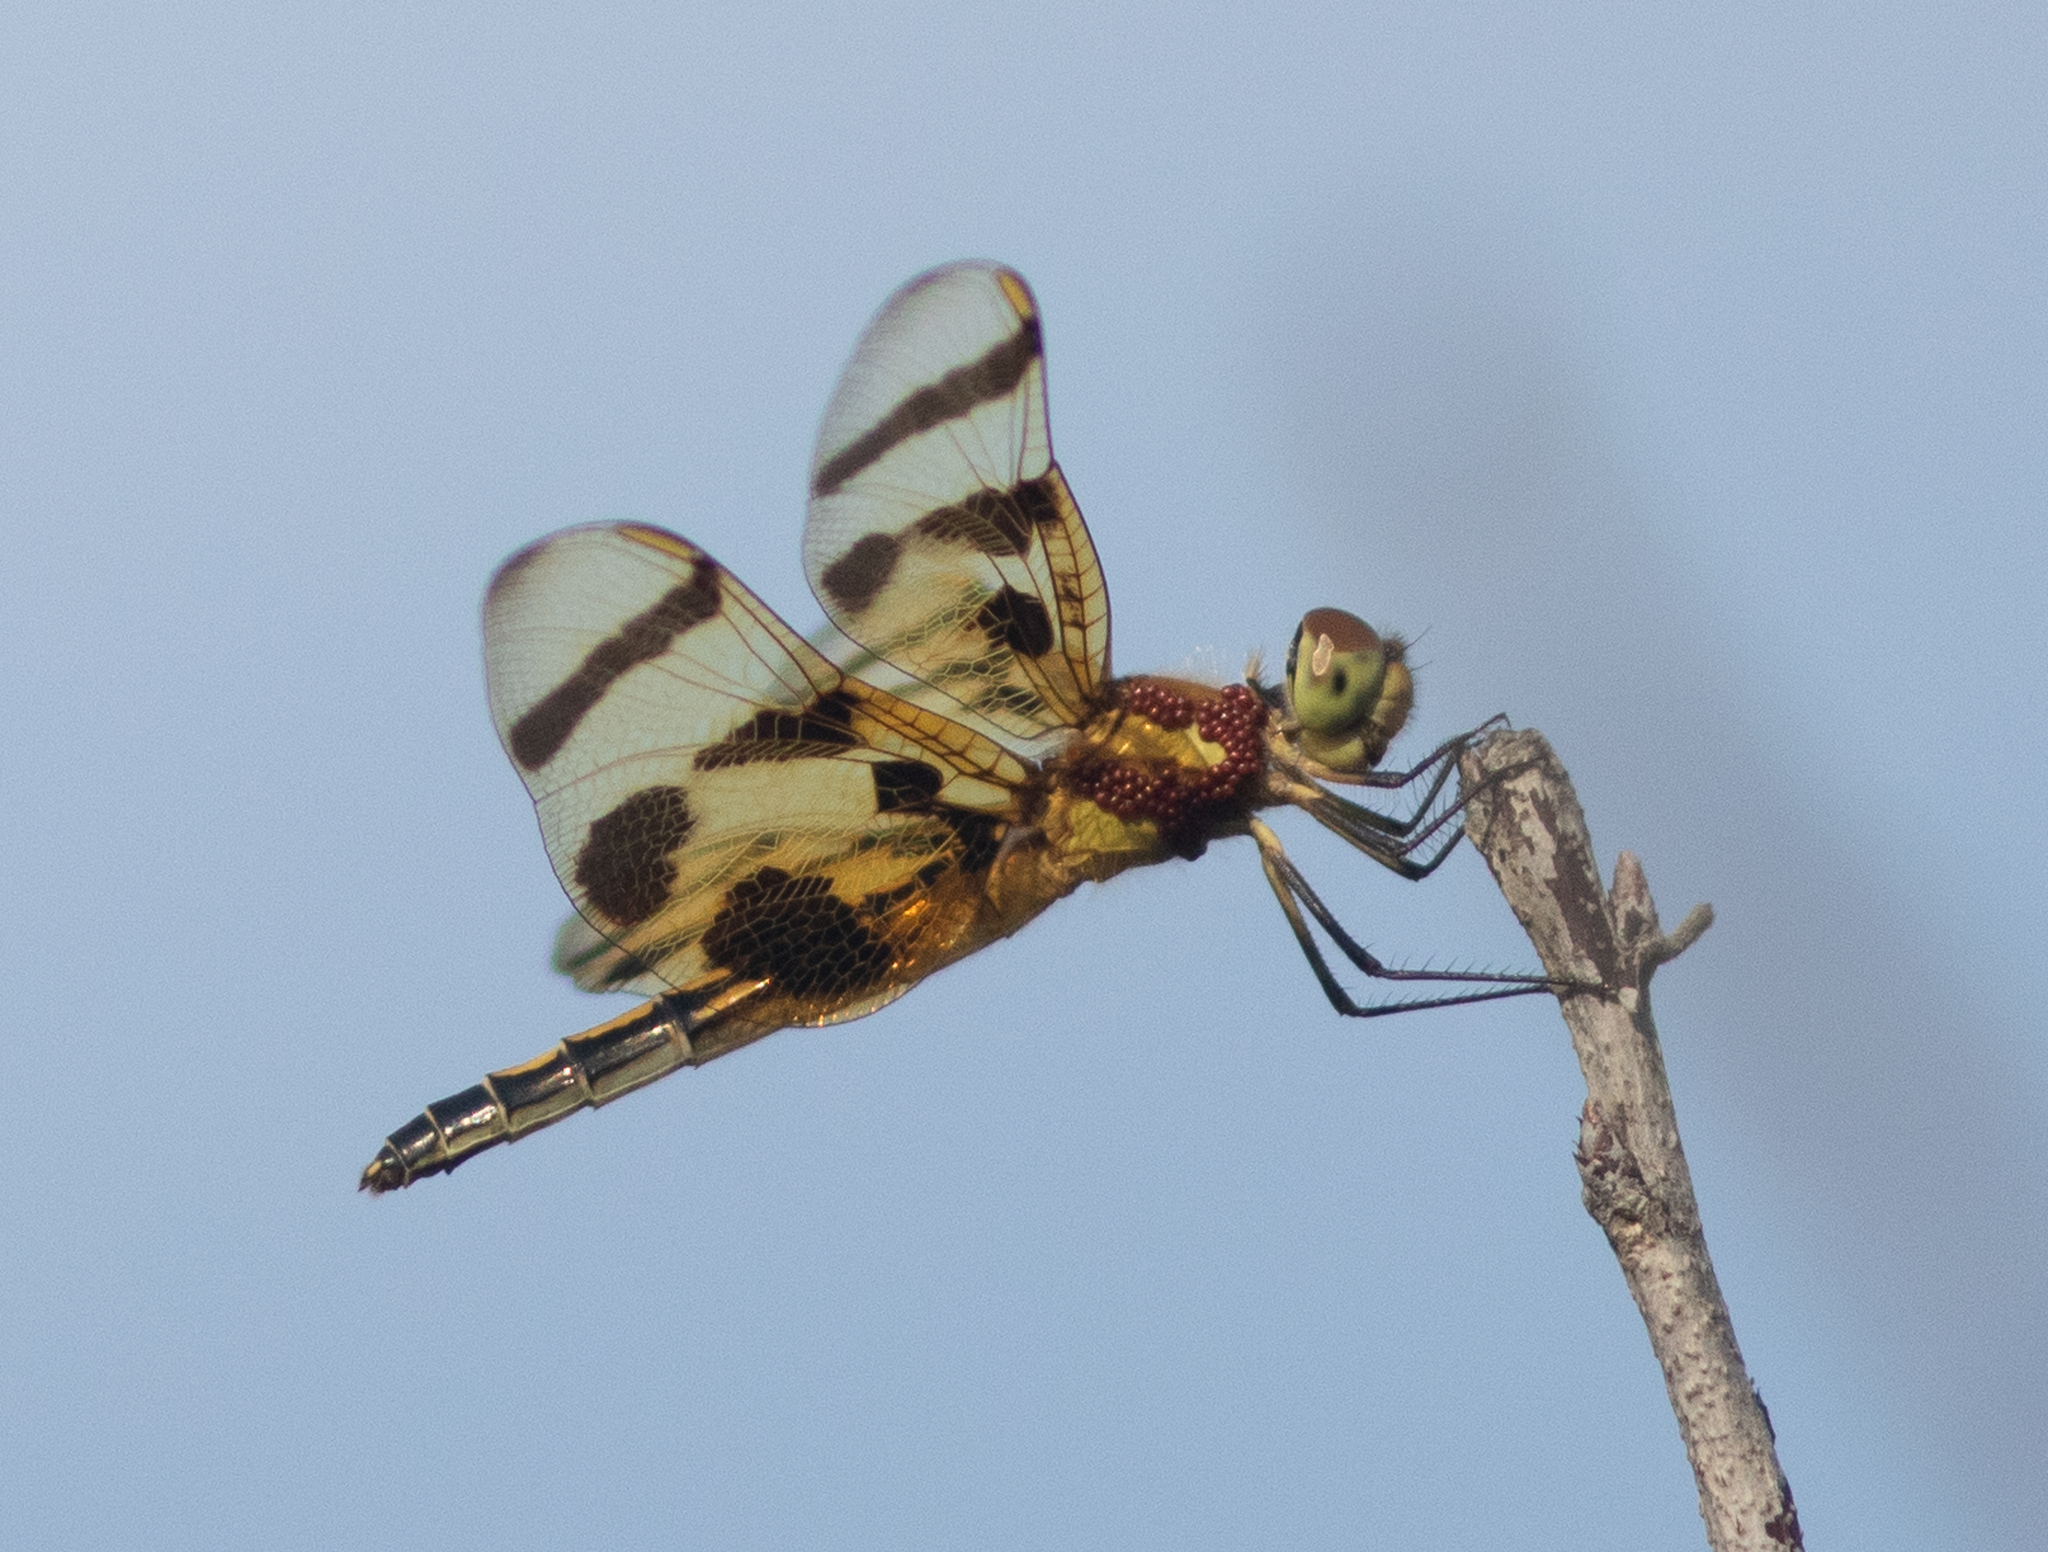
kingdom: Animalia
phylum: Arthropoda
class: Insecta
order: Odonata
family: Libellulidae
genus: Celithemis
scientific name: Celithemis eponina
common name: Halloween pennant
